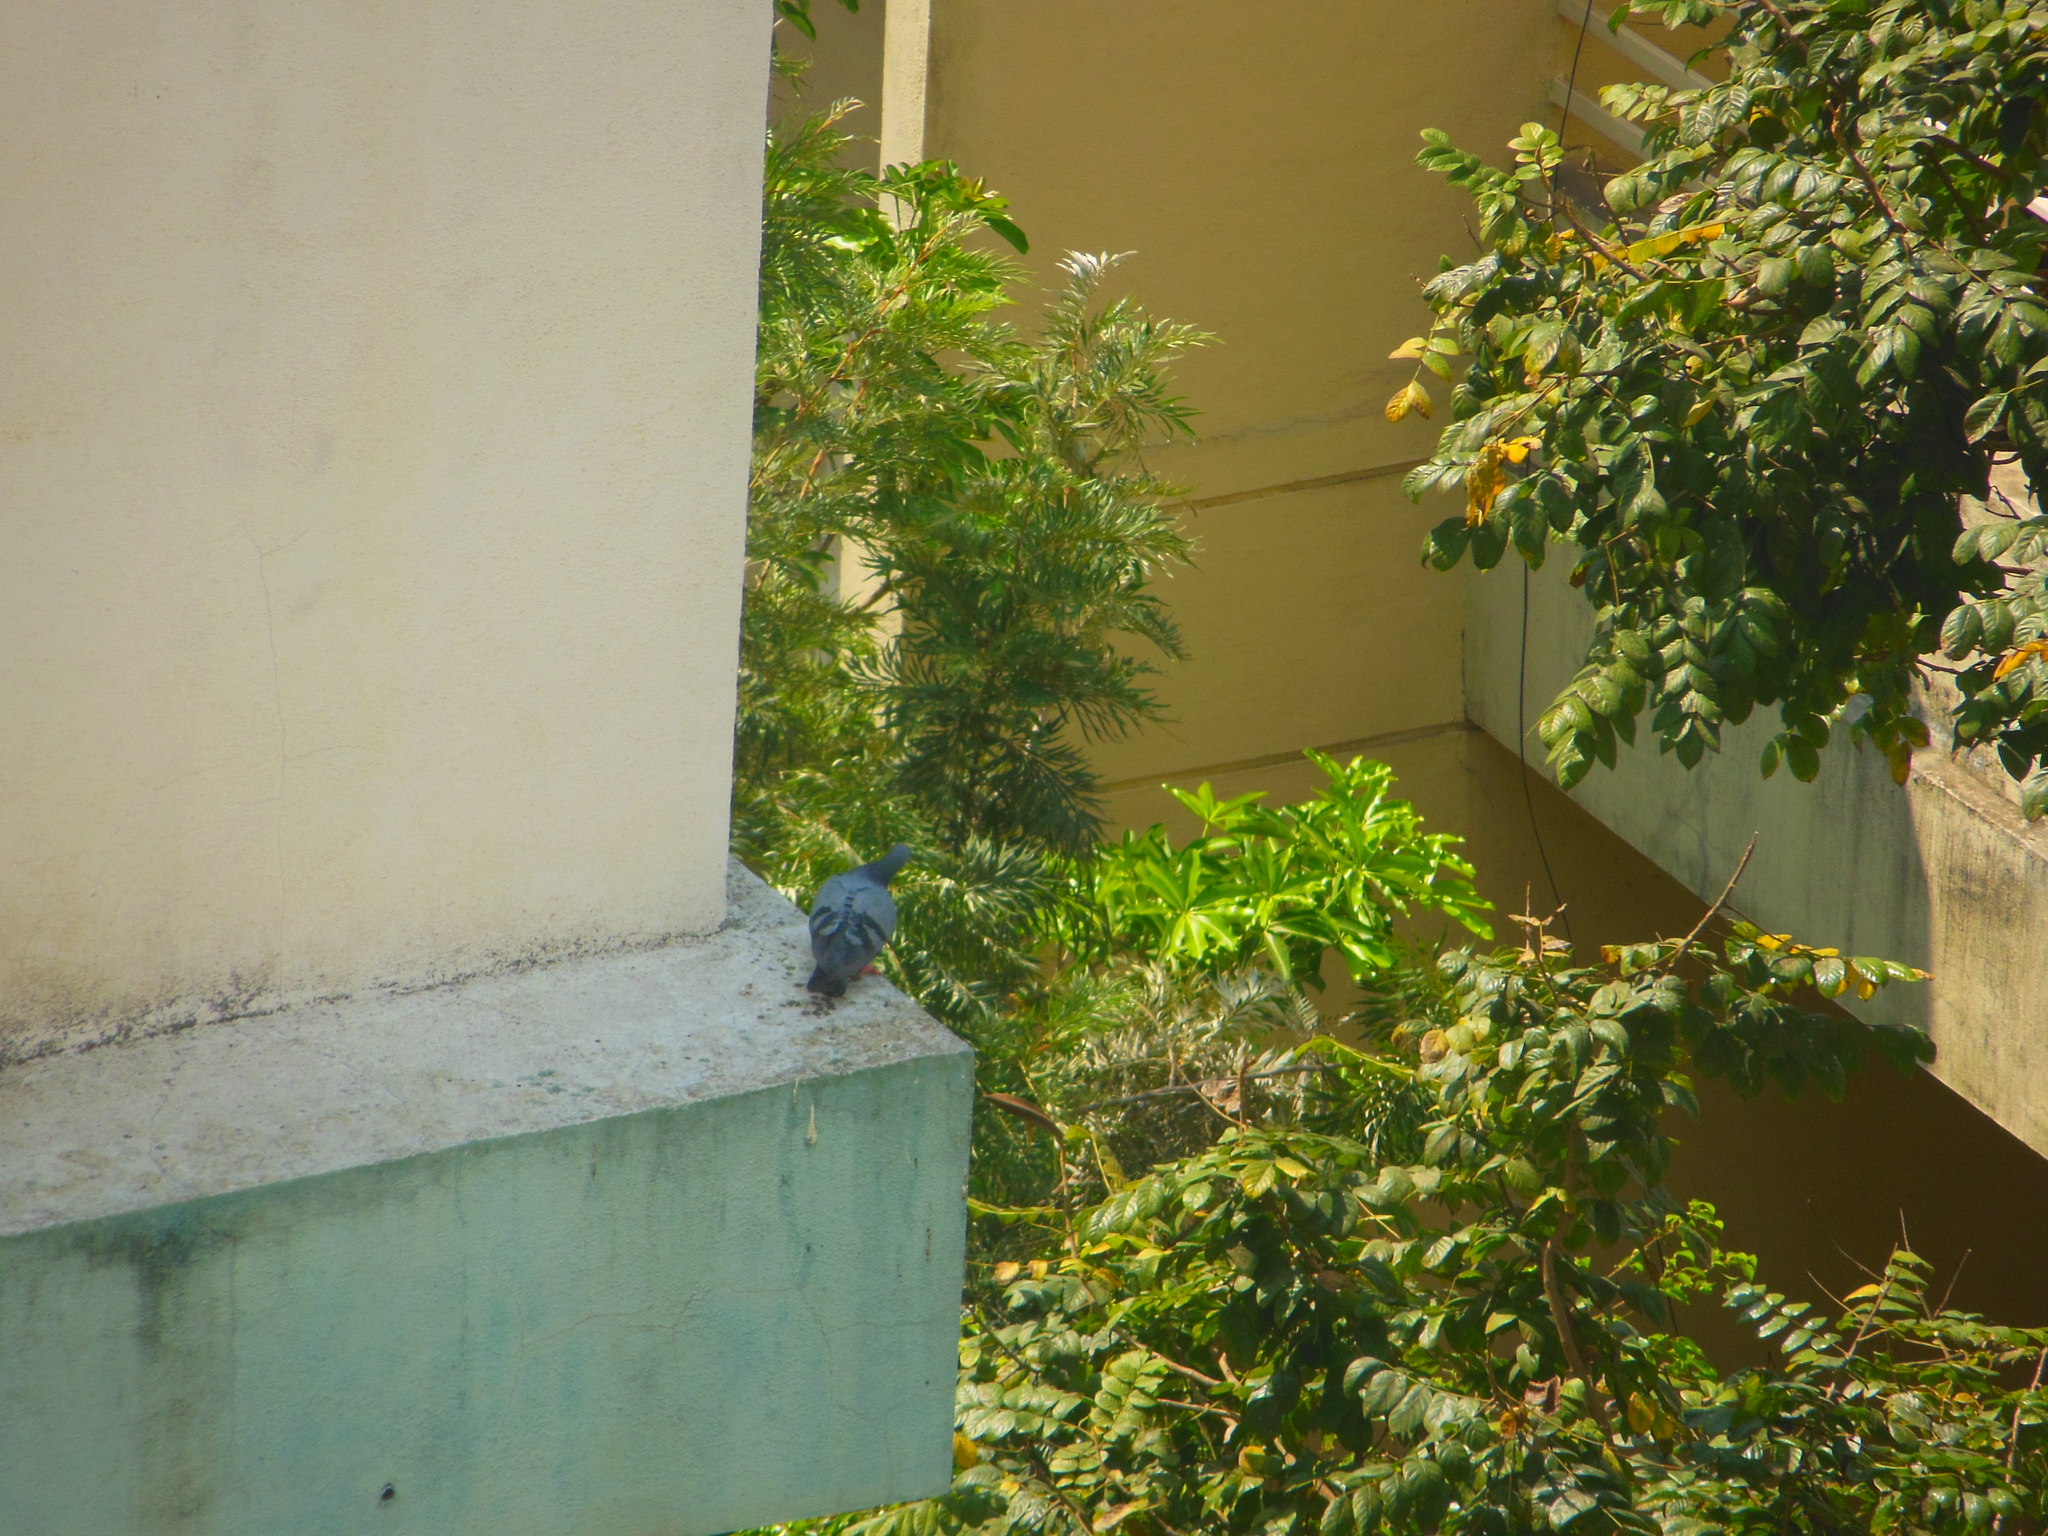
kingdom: Animalia
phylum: Chordata
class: Aves
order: Columbiformes
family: Columbidae
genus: Columba
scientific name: Columba livia
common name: Rock pigeon
